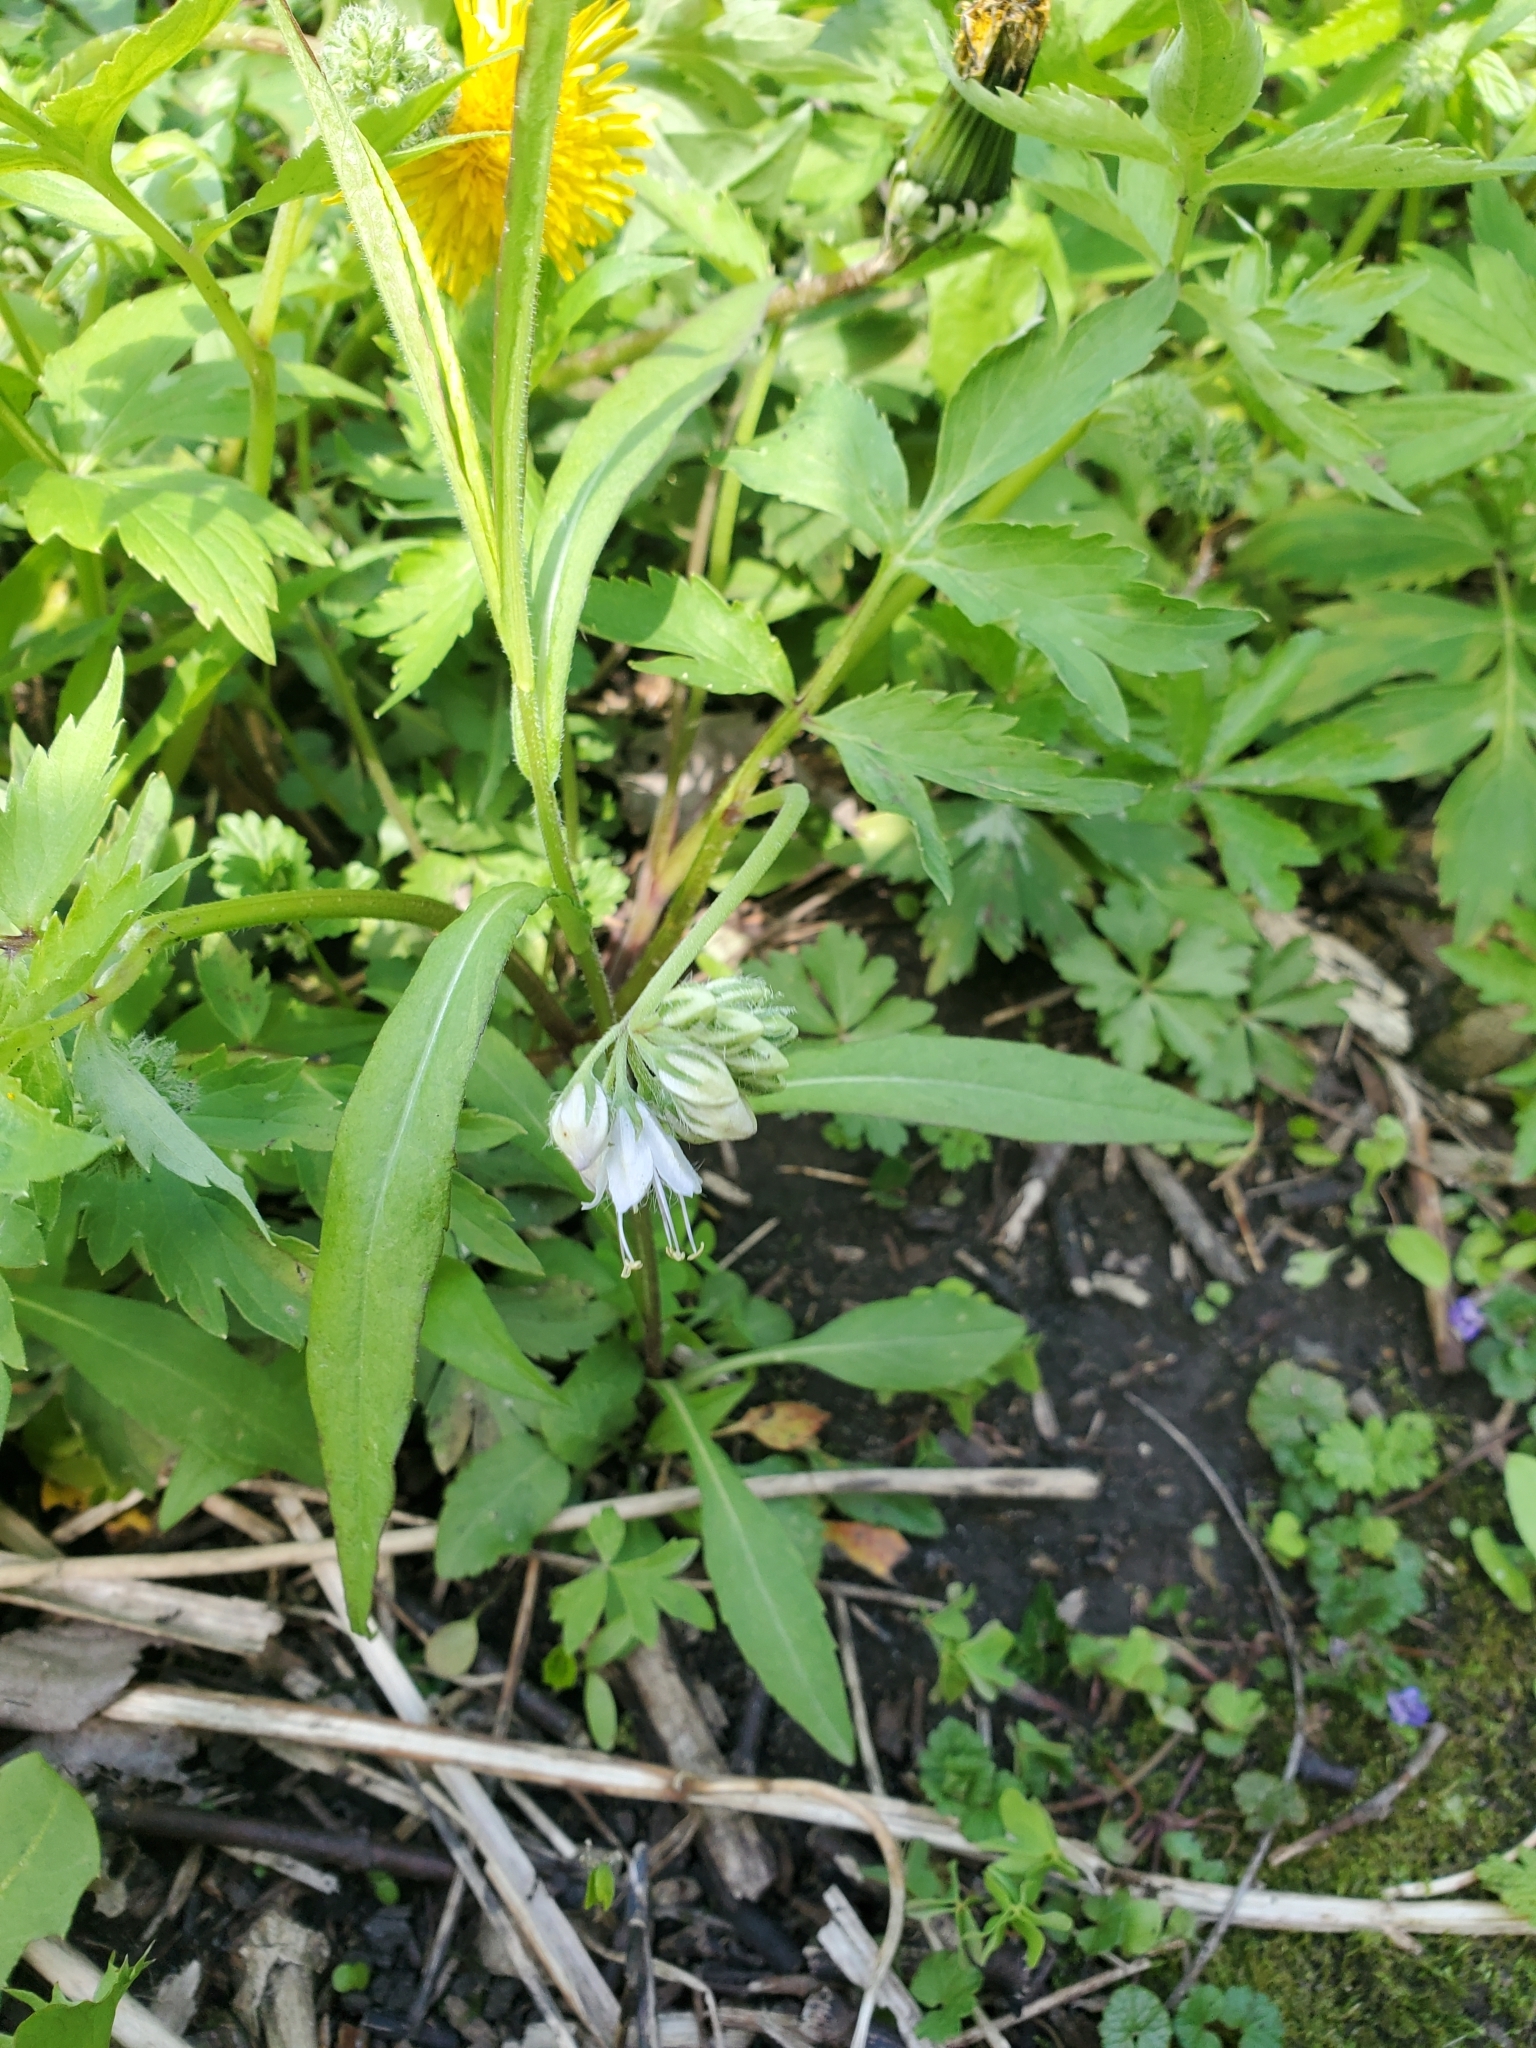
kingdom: Plantae
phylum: Tracheophyta
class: Magnoliopsida
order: Boraginales
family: Hydrophyllaceae
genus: Hydrophyllum
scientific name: Hydrophyllum virginianum
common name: Virginia waterleaf
